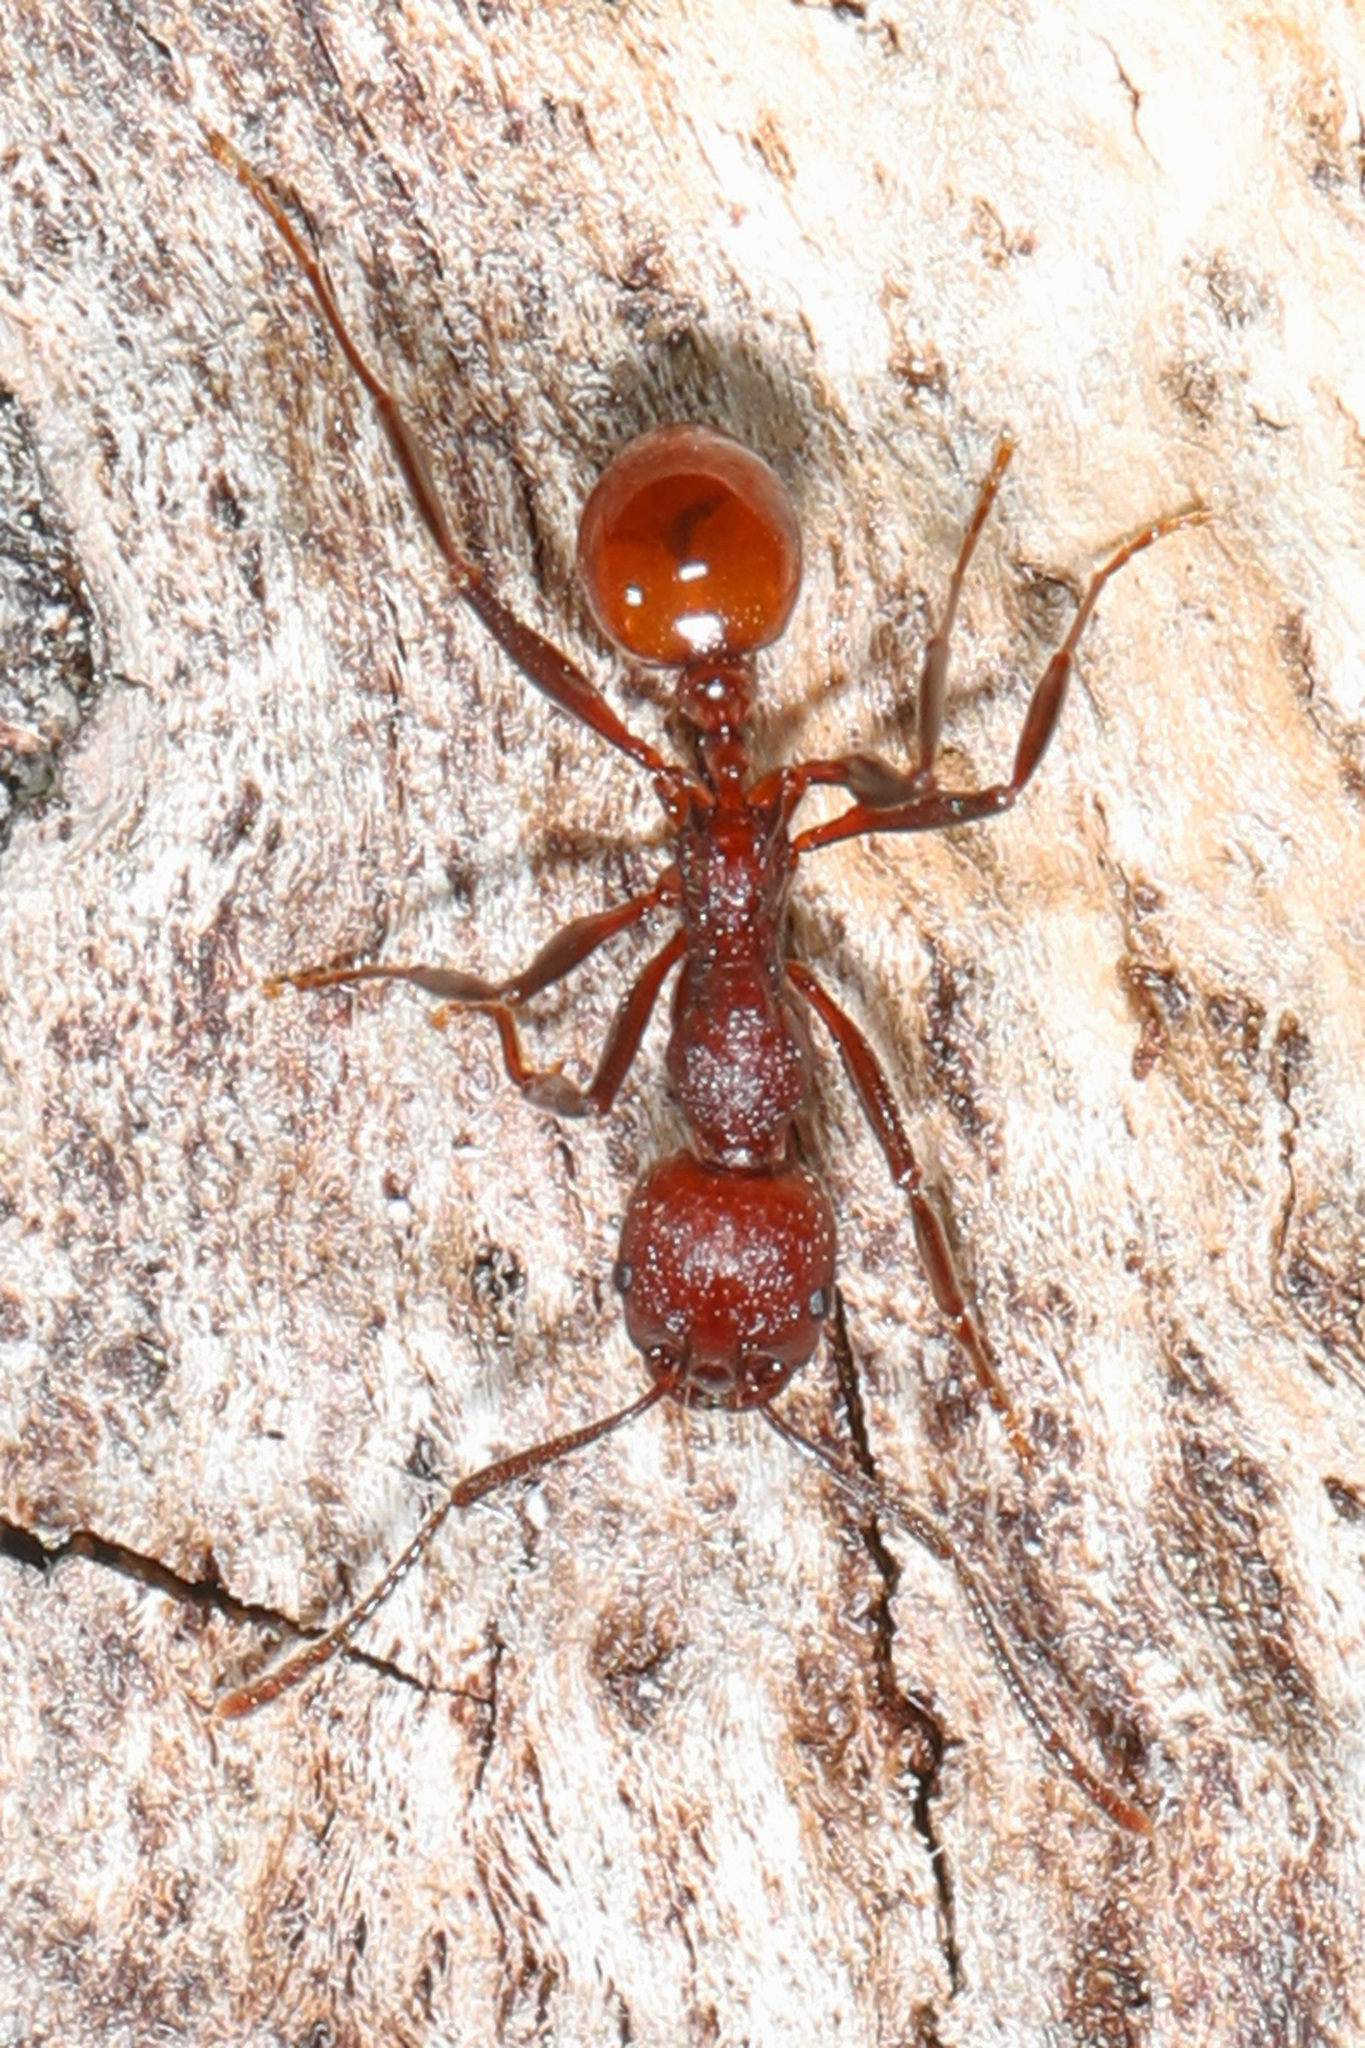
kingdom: Animalia
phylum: Arthropoda
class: Insecta
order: Hymenoptera
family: Formicidae
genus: Aphaenogaster
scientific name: Aphaenogaster tennesseensis
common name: Tennessee thread-waisted ant
